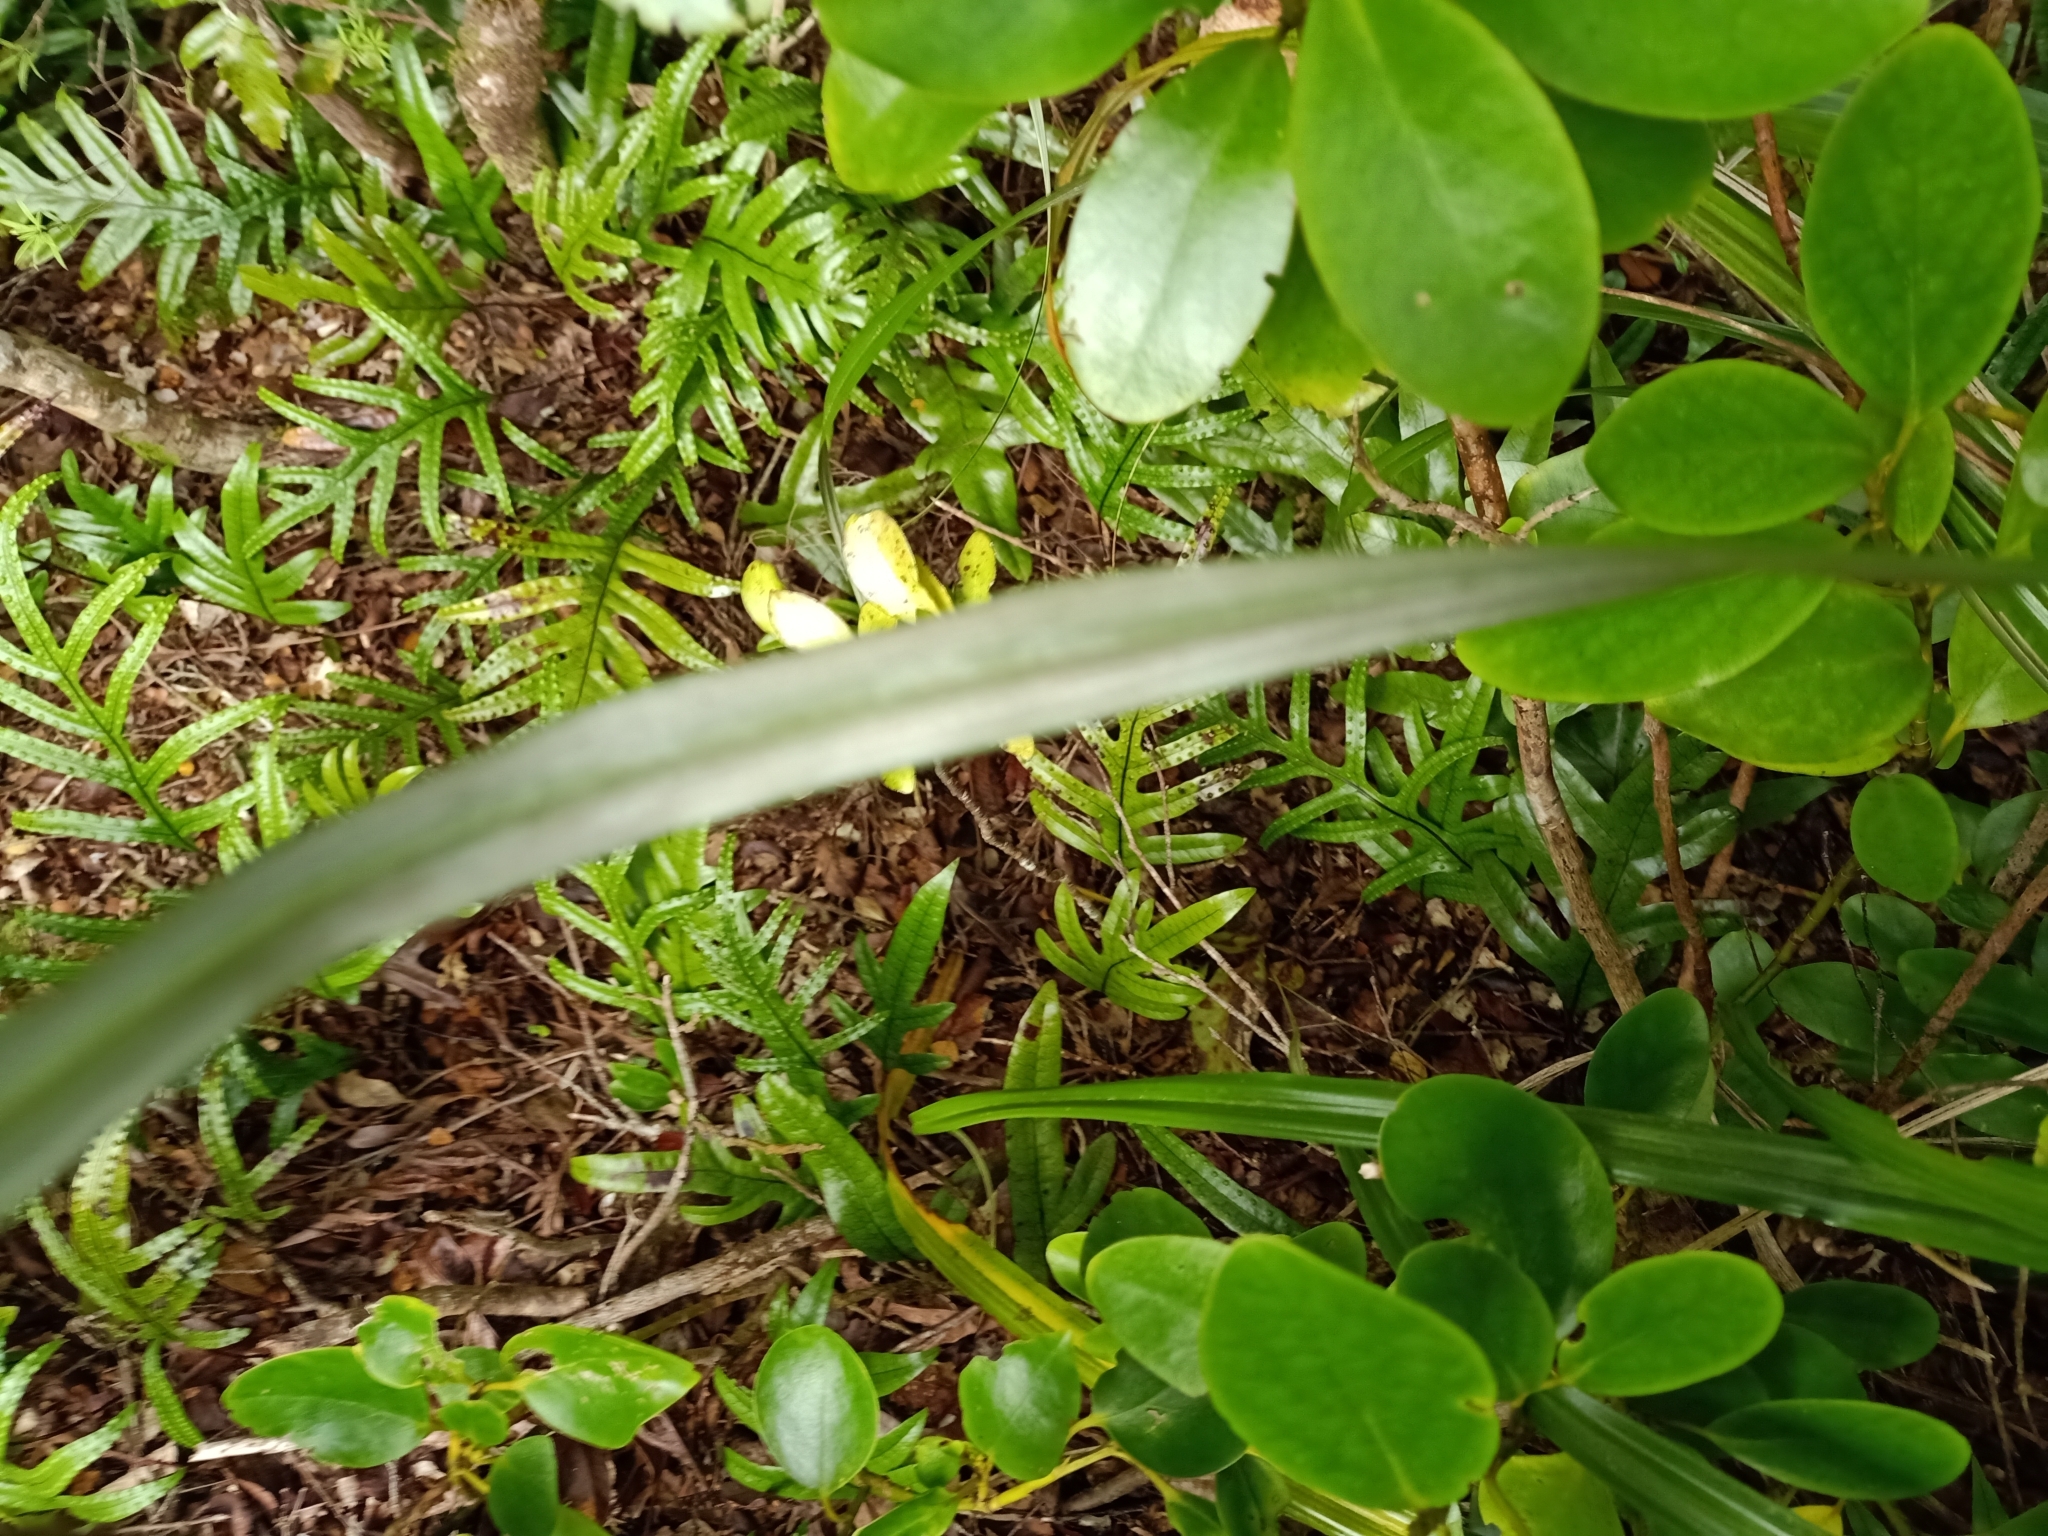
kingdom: Plantae
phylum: Tracheophyta
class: Liliopsida
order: Asparagales
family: Asteliaceae
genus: Astelia
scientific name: Astelia solandri
